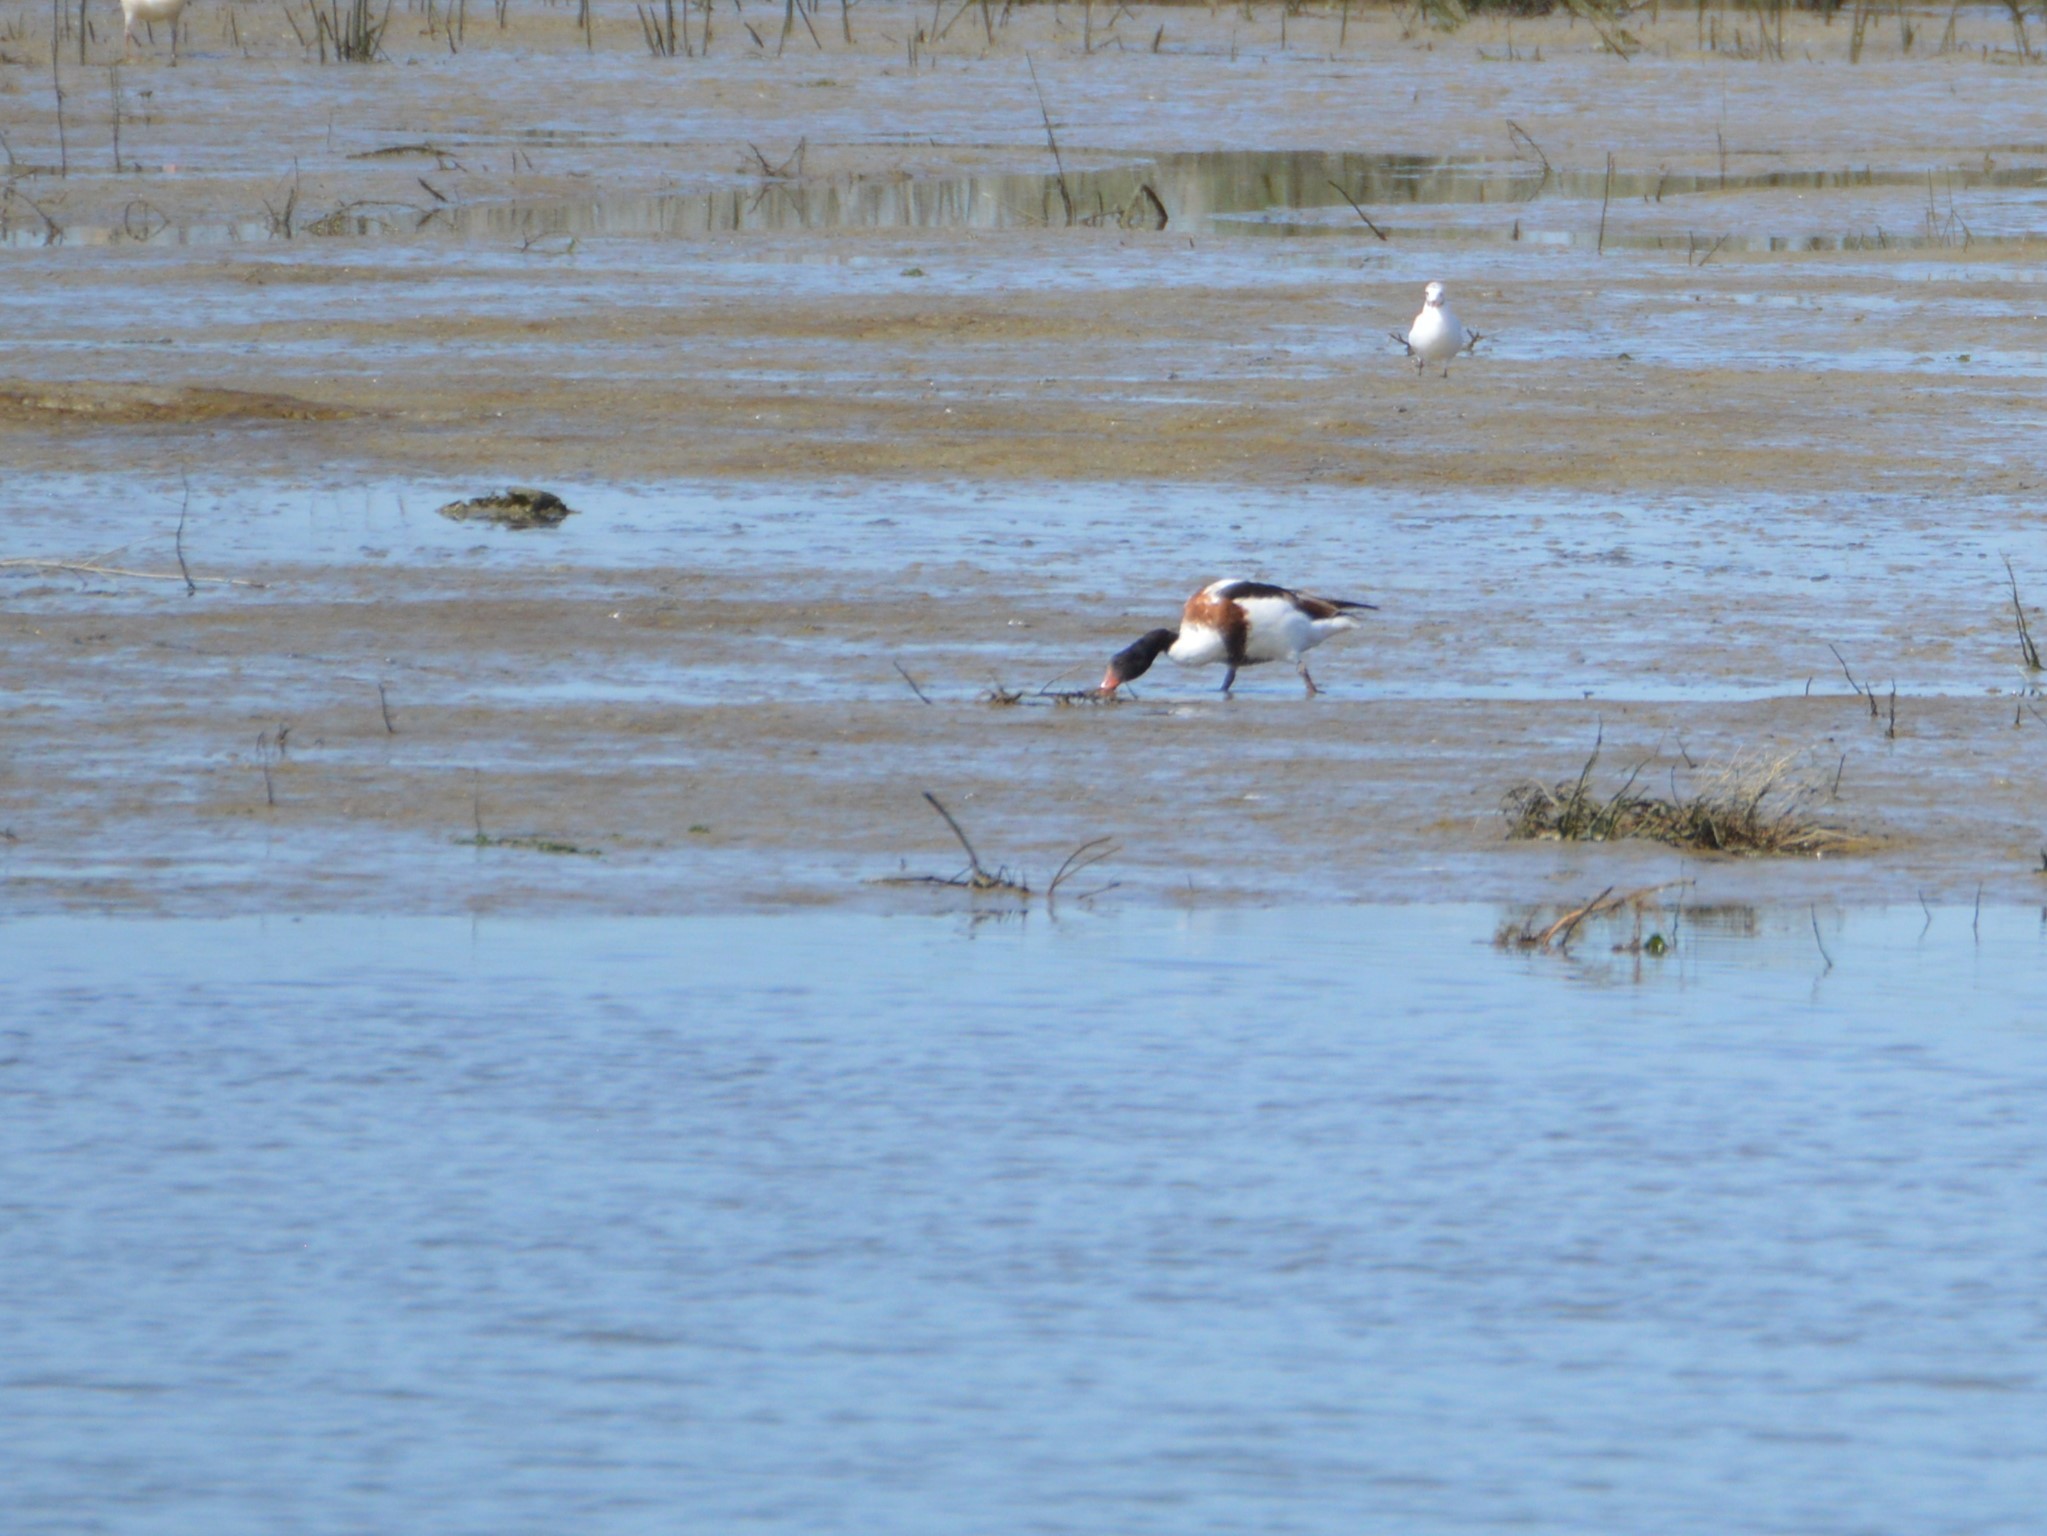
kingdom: Animalia
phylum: Chordata
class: Aves
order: Anseriformes
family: Anatidae
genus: Tadorna
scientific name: Tadorna tadorna
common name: Common shelduck
